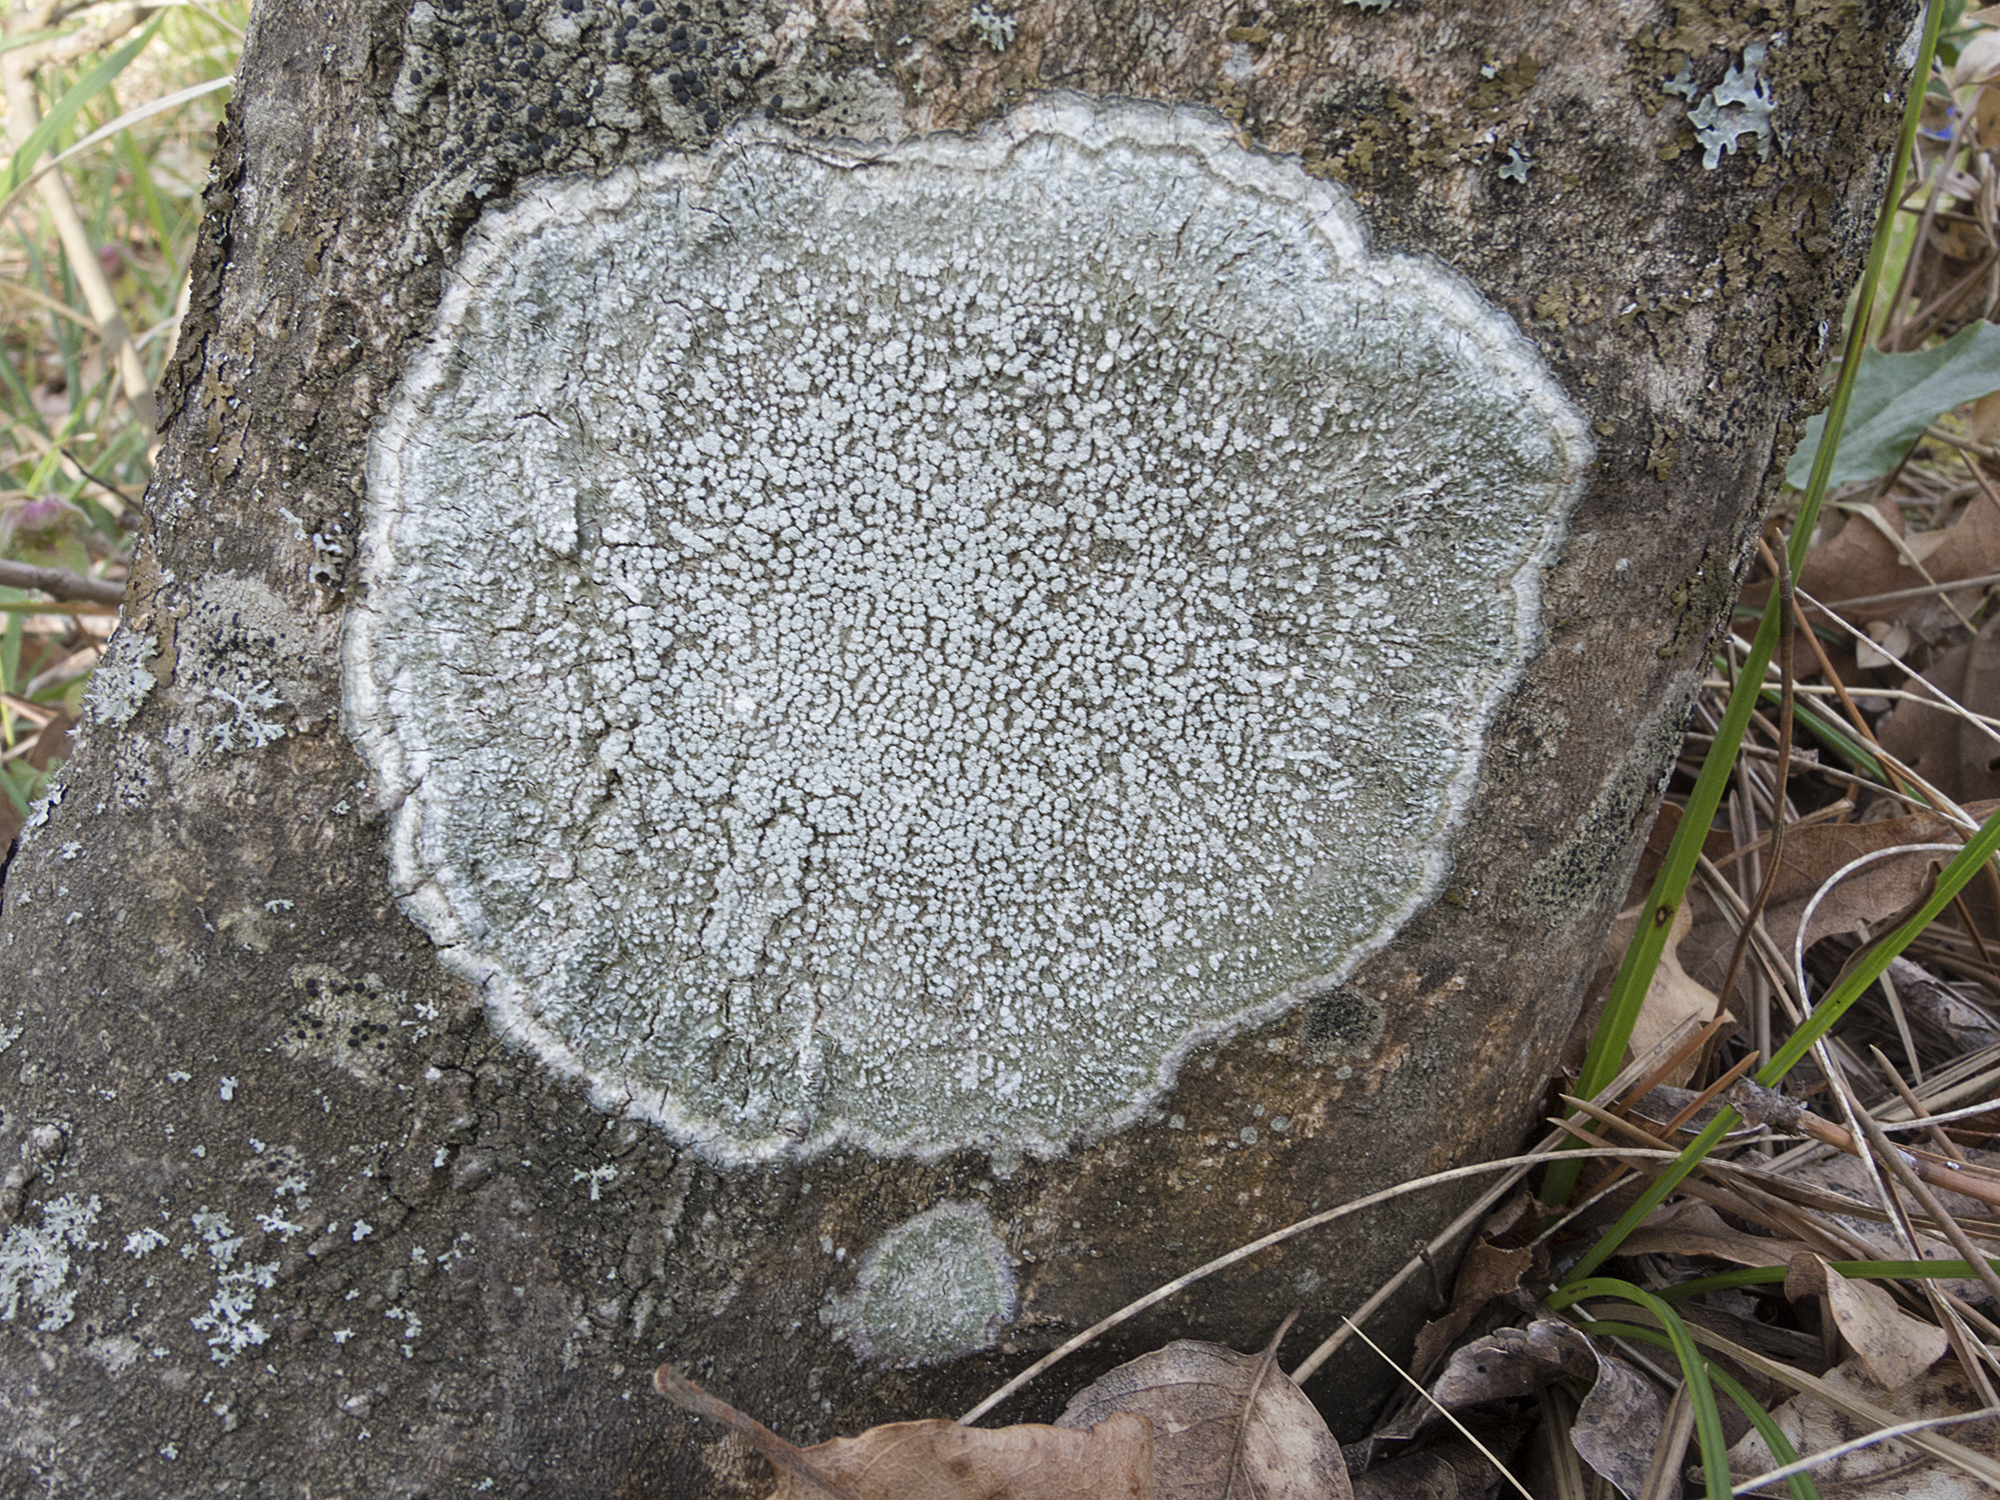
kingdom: Fungi
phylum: Ascomycota
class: Lecanoromycetes
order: Pertusariales
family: Pertusariaceae
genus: Lepra
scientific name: Lepra amara
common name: Bitter wart lichen
